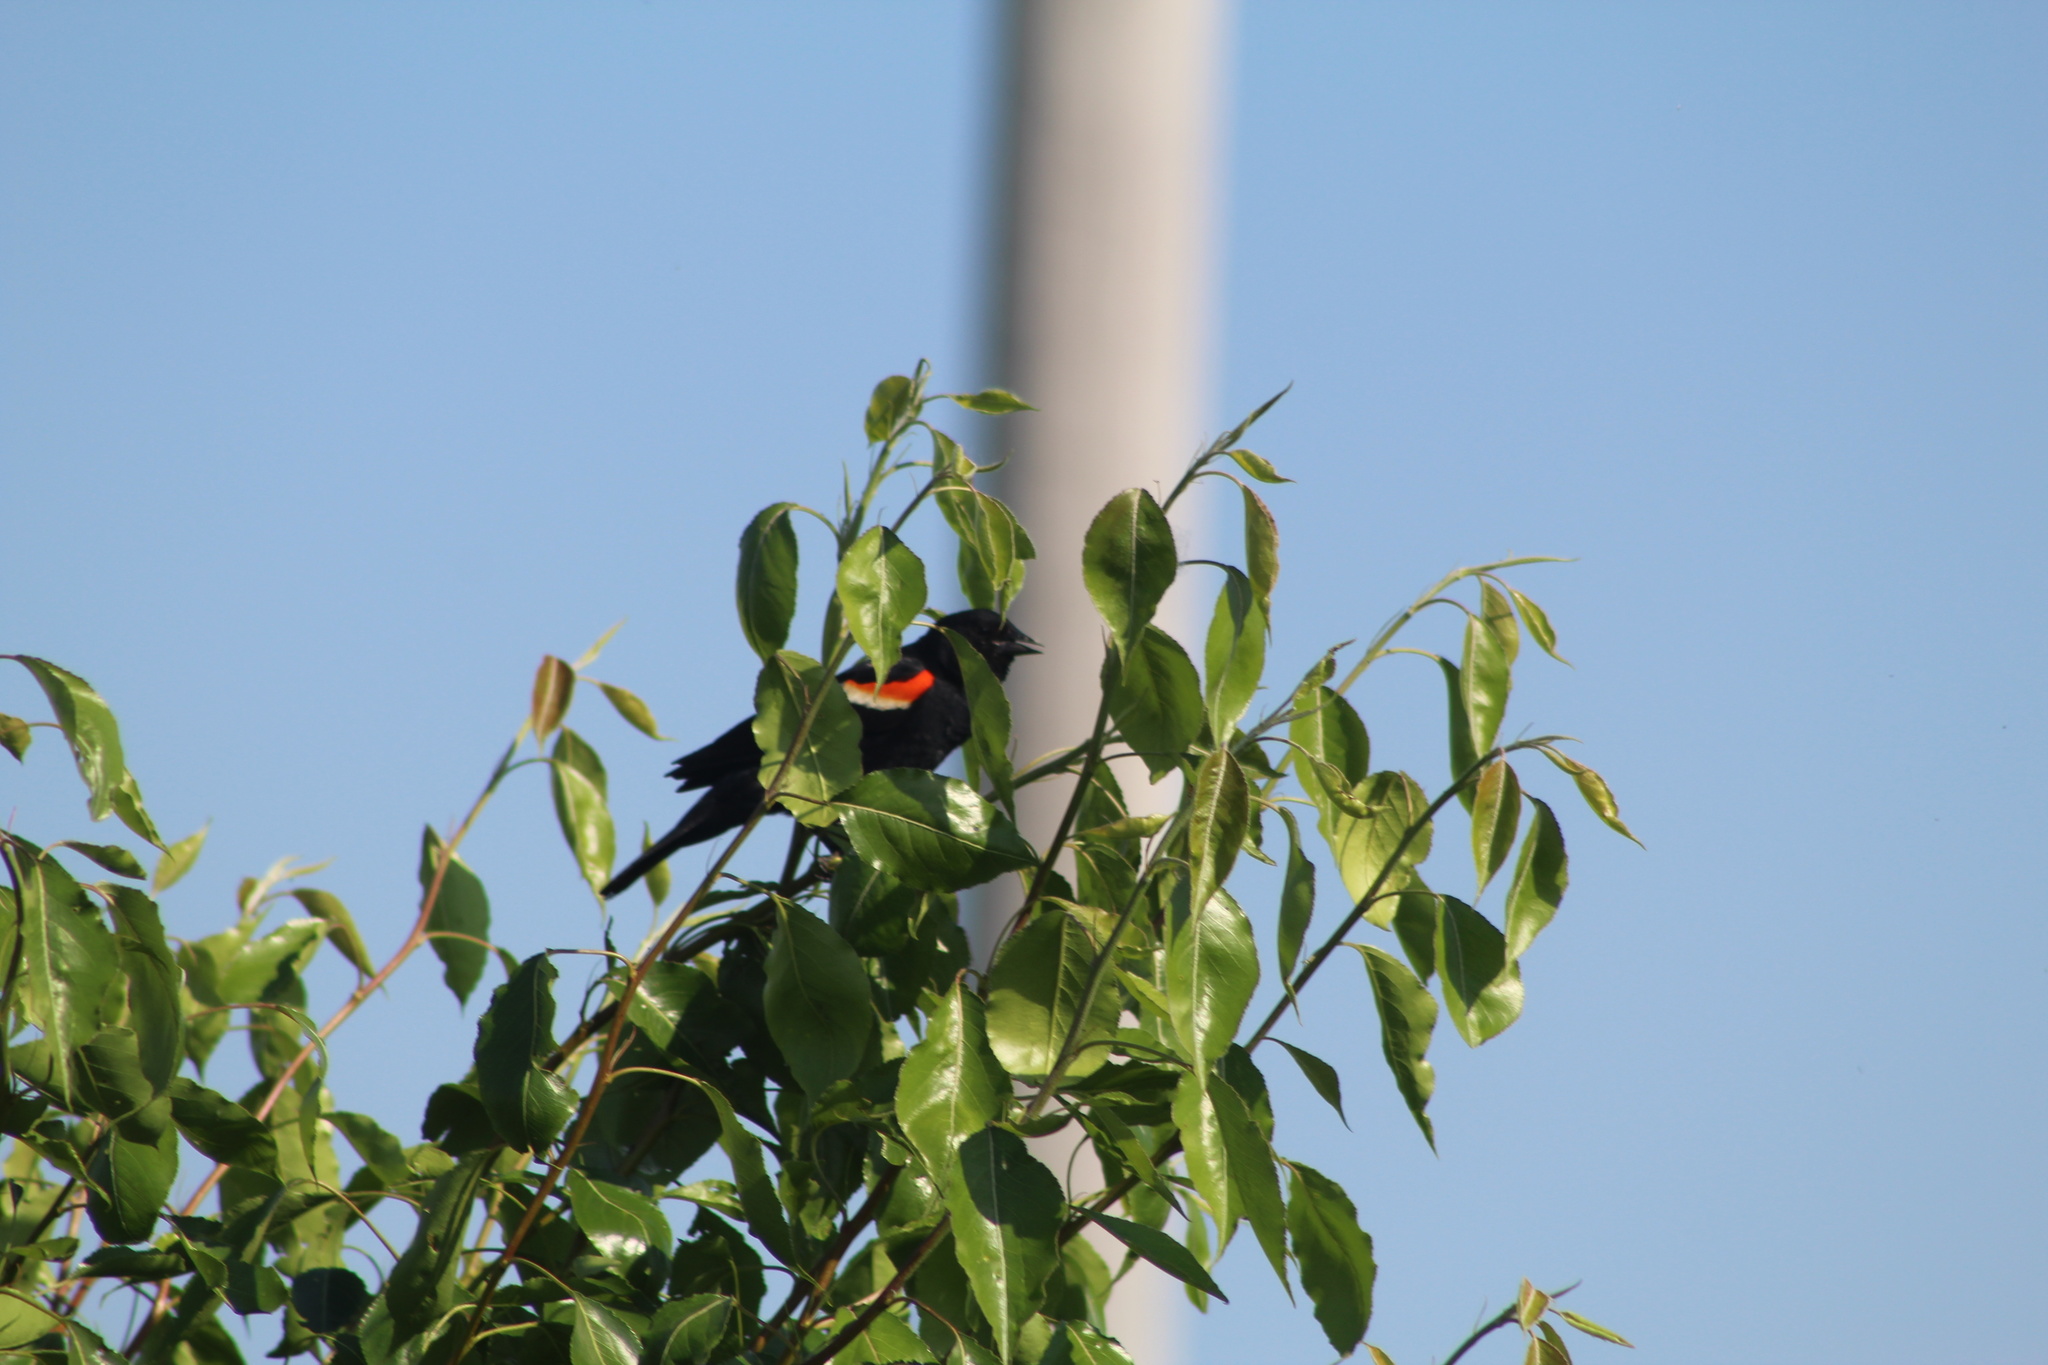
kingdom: Animalia
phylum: Chordata
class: Aves
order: Passeriformes
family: Icteridae
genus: Agelaius
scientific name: Agelaius phoeniceus
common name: Red-winged blackbird
